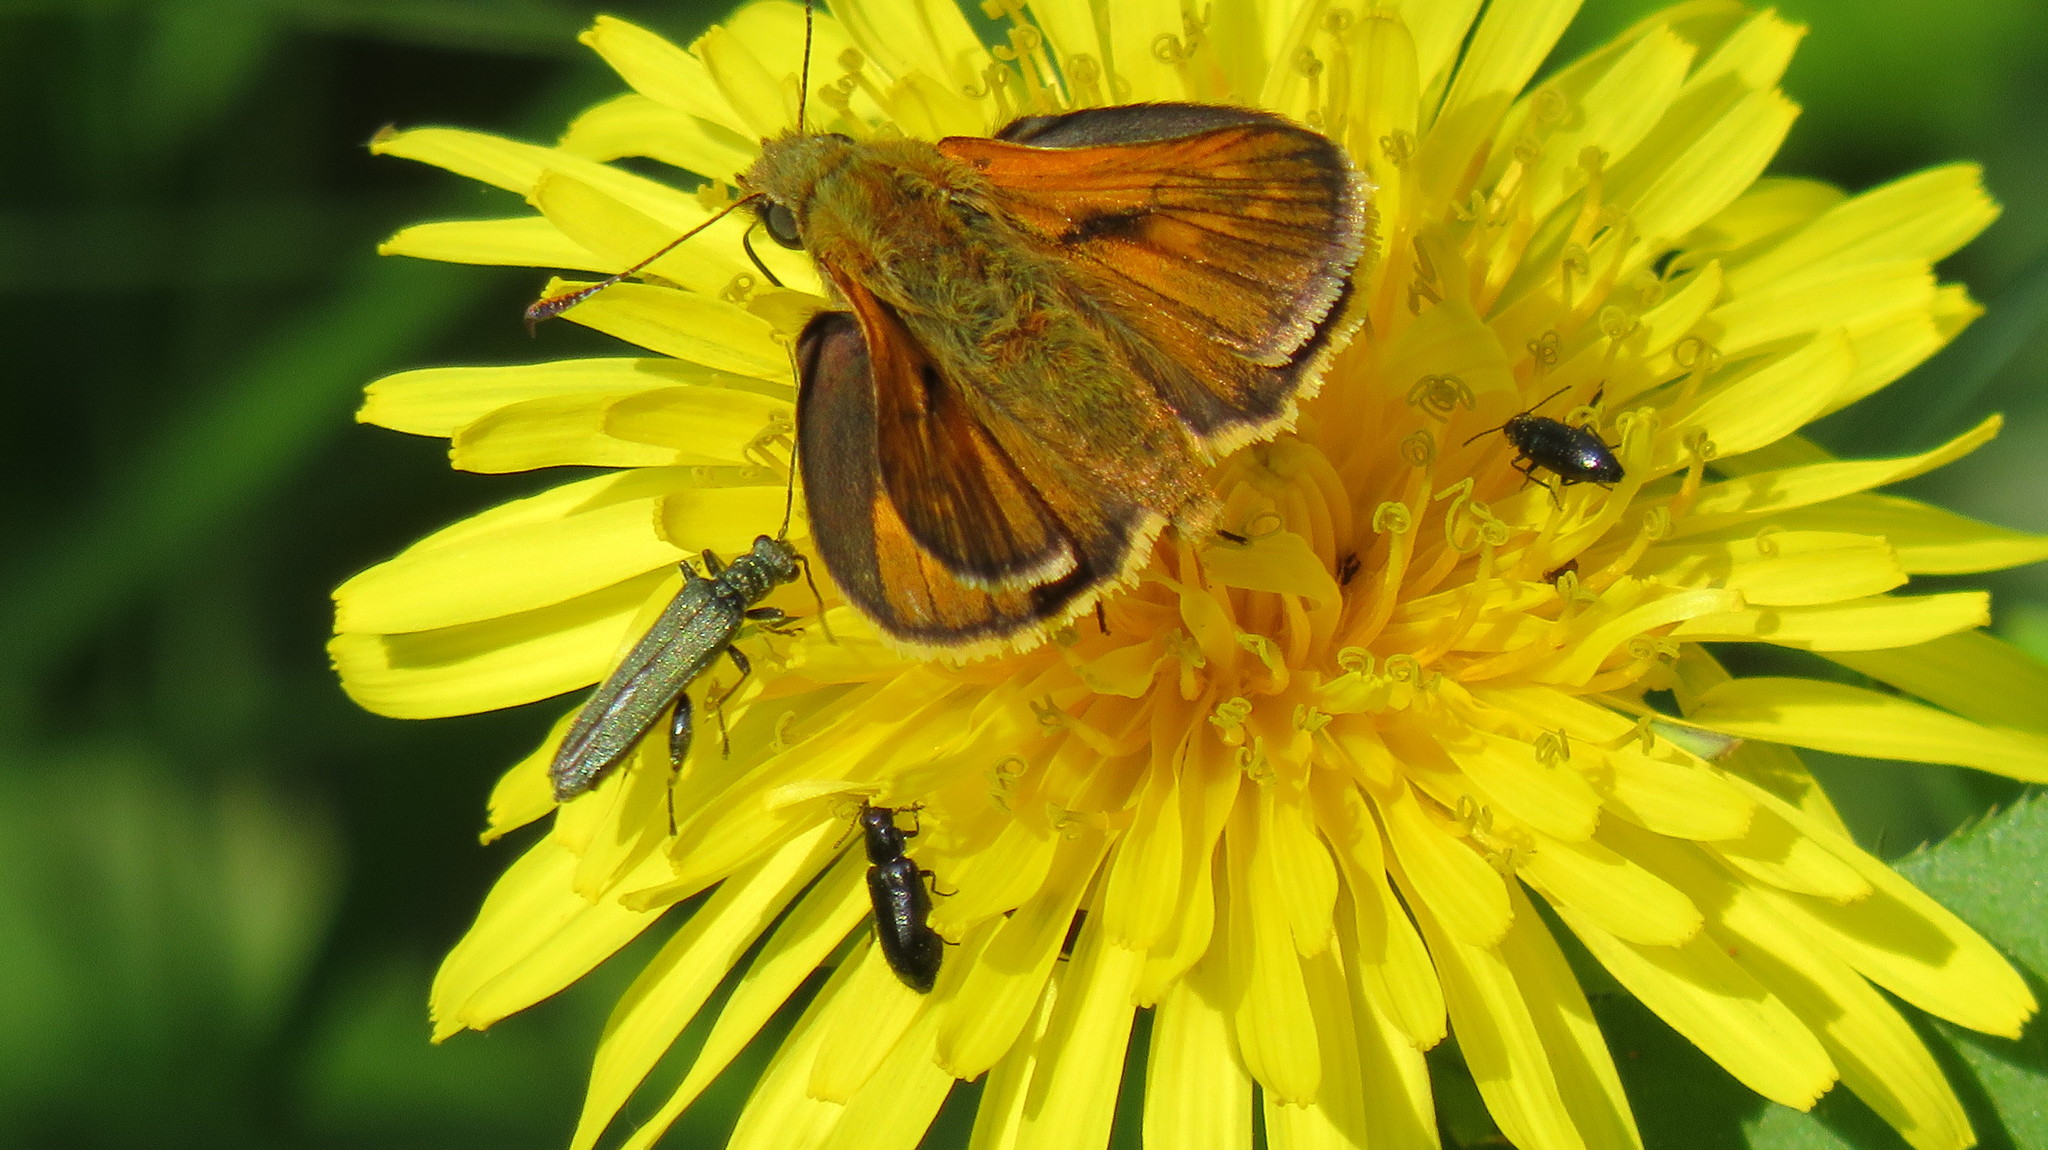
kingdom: Animalia
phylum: Arthropoda
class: Insecta
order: Lepidoptera
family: Hesperiidae
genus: Ochlodes
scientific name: Ochlodes venata
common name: Large skipper
